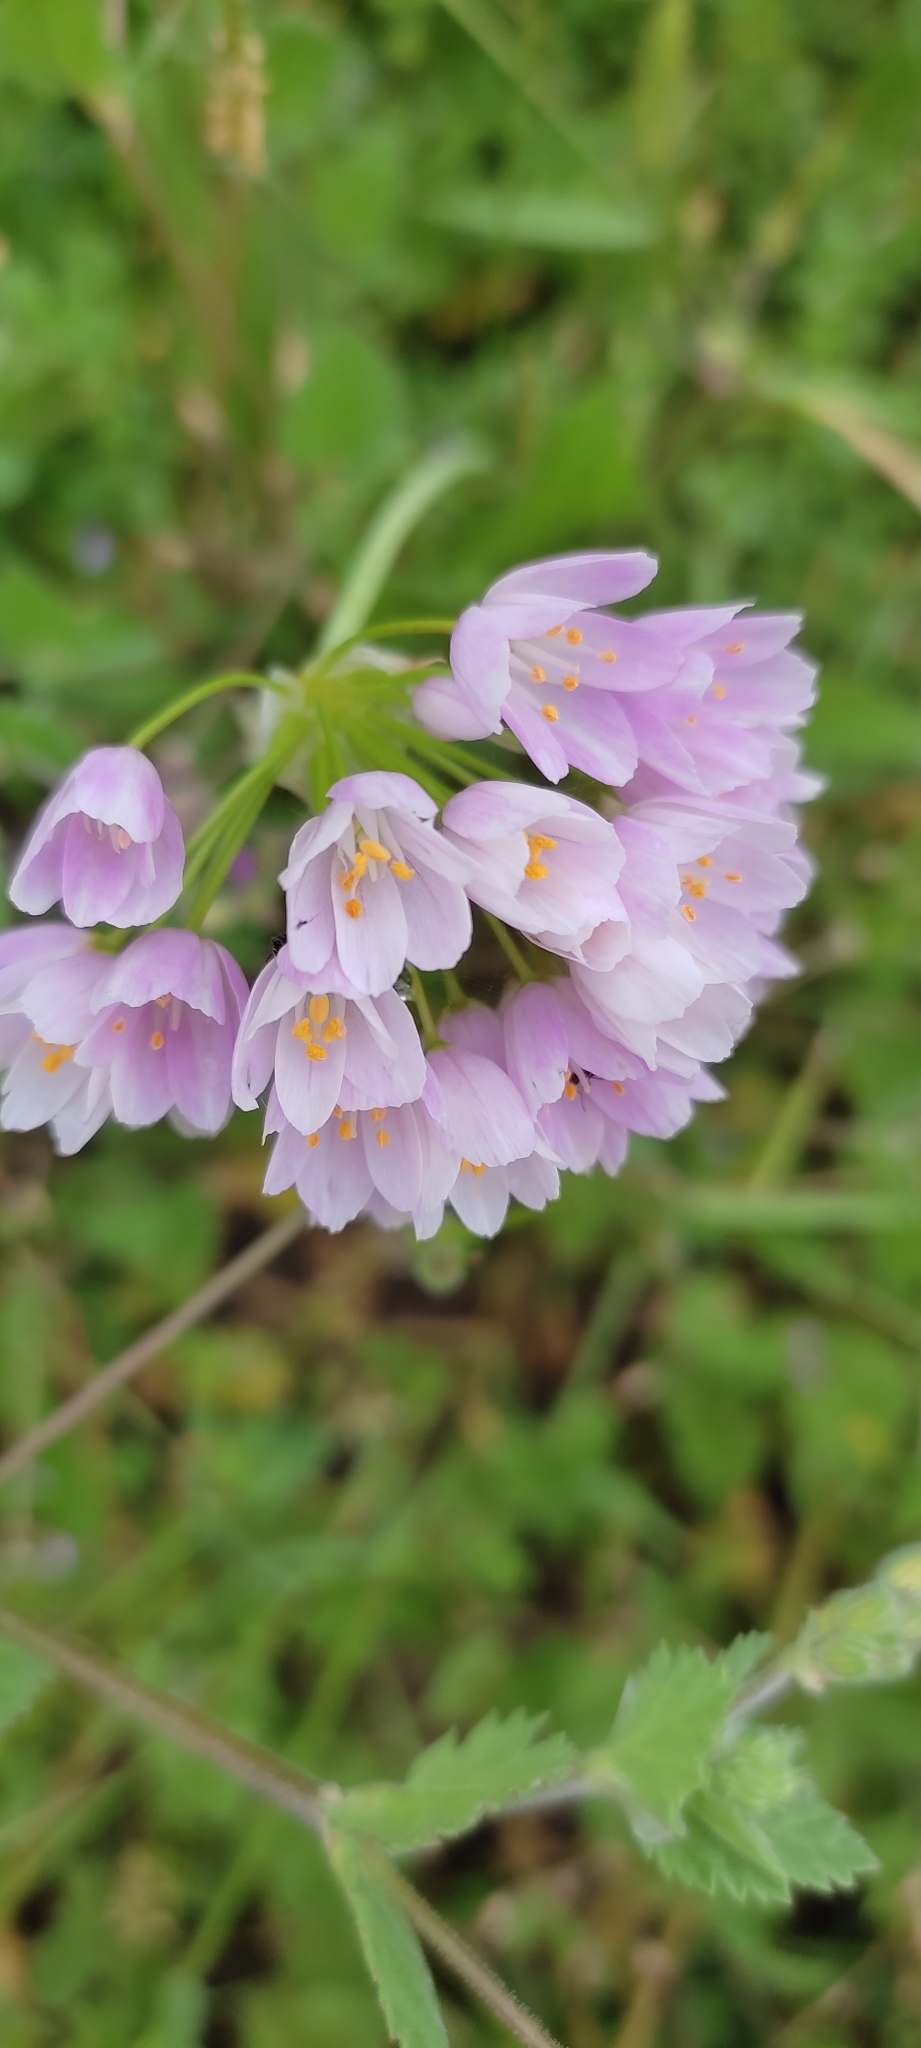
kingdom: Plantae
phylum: Tracheophyta
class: Liliopsida
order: Asparagales
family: Amaryllidaceae
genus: Allium
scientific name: Allium roseum
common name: Rosy garlic
